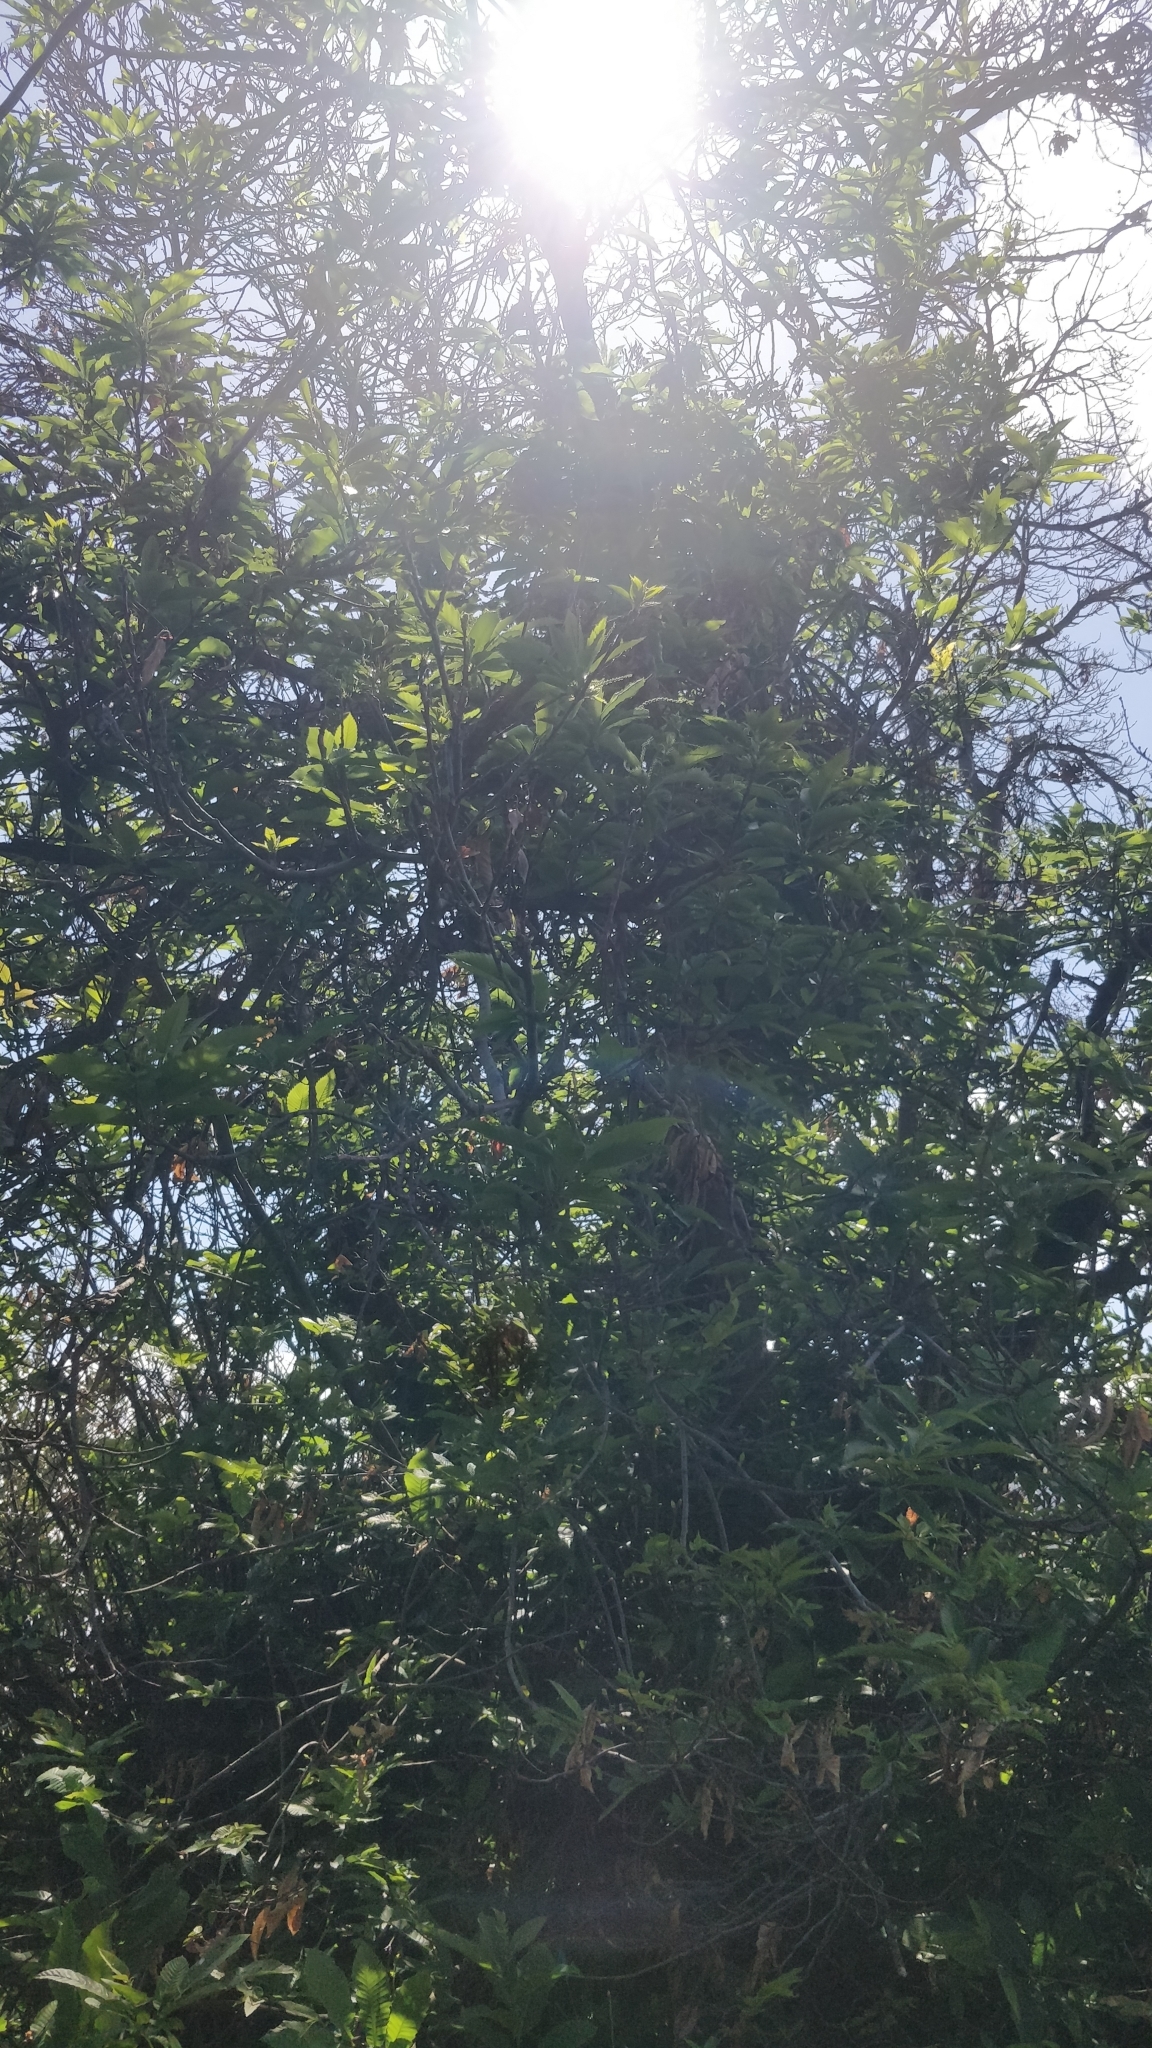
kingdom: Plantae
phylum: Tracheophyta
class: Magnoliopsida
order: Fagales
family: Fagaceae
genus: Castanea
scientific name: Castanea sativa
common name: Sweet chestnut
